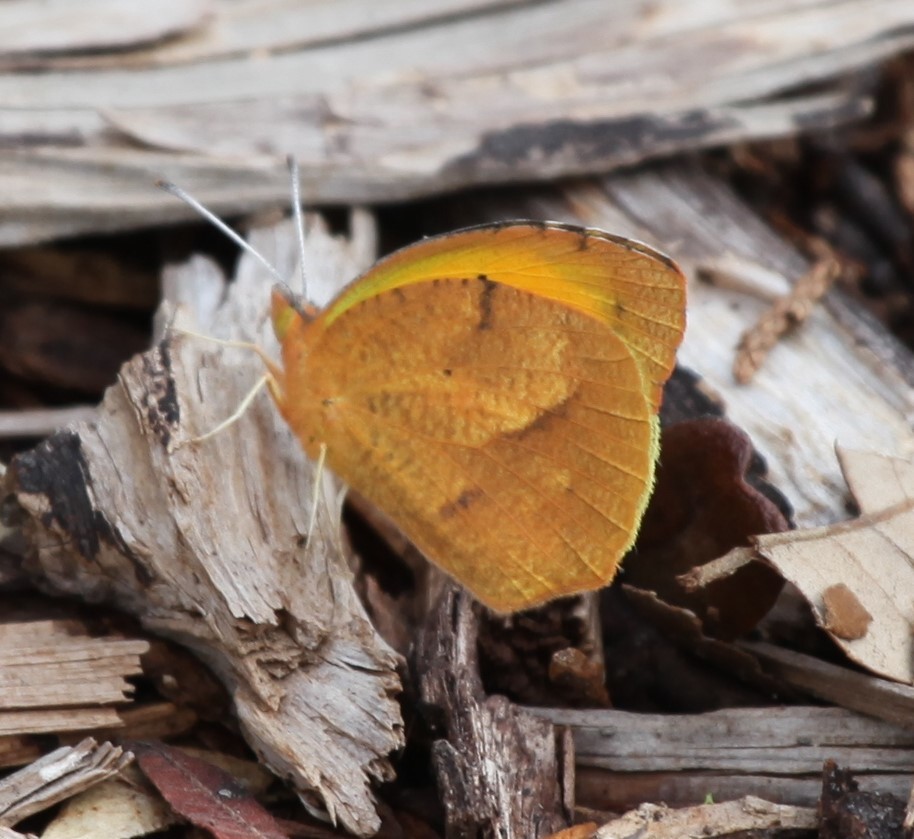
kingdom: Animalia
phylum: Arthropoda
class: Insecta
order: Lepidoptera
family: Pieridae
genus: Abaeis
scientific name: Abaeis nicippe
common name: Sleepy orange
